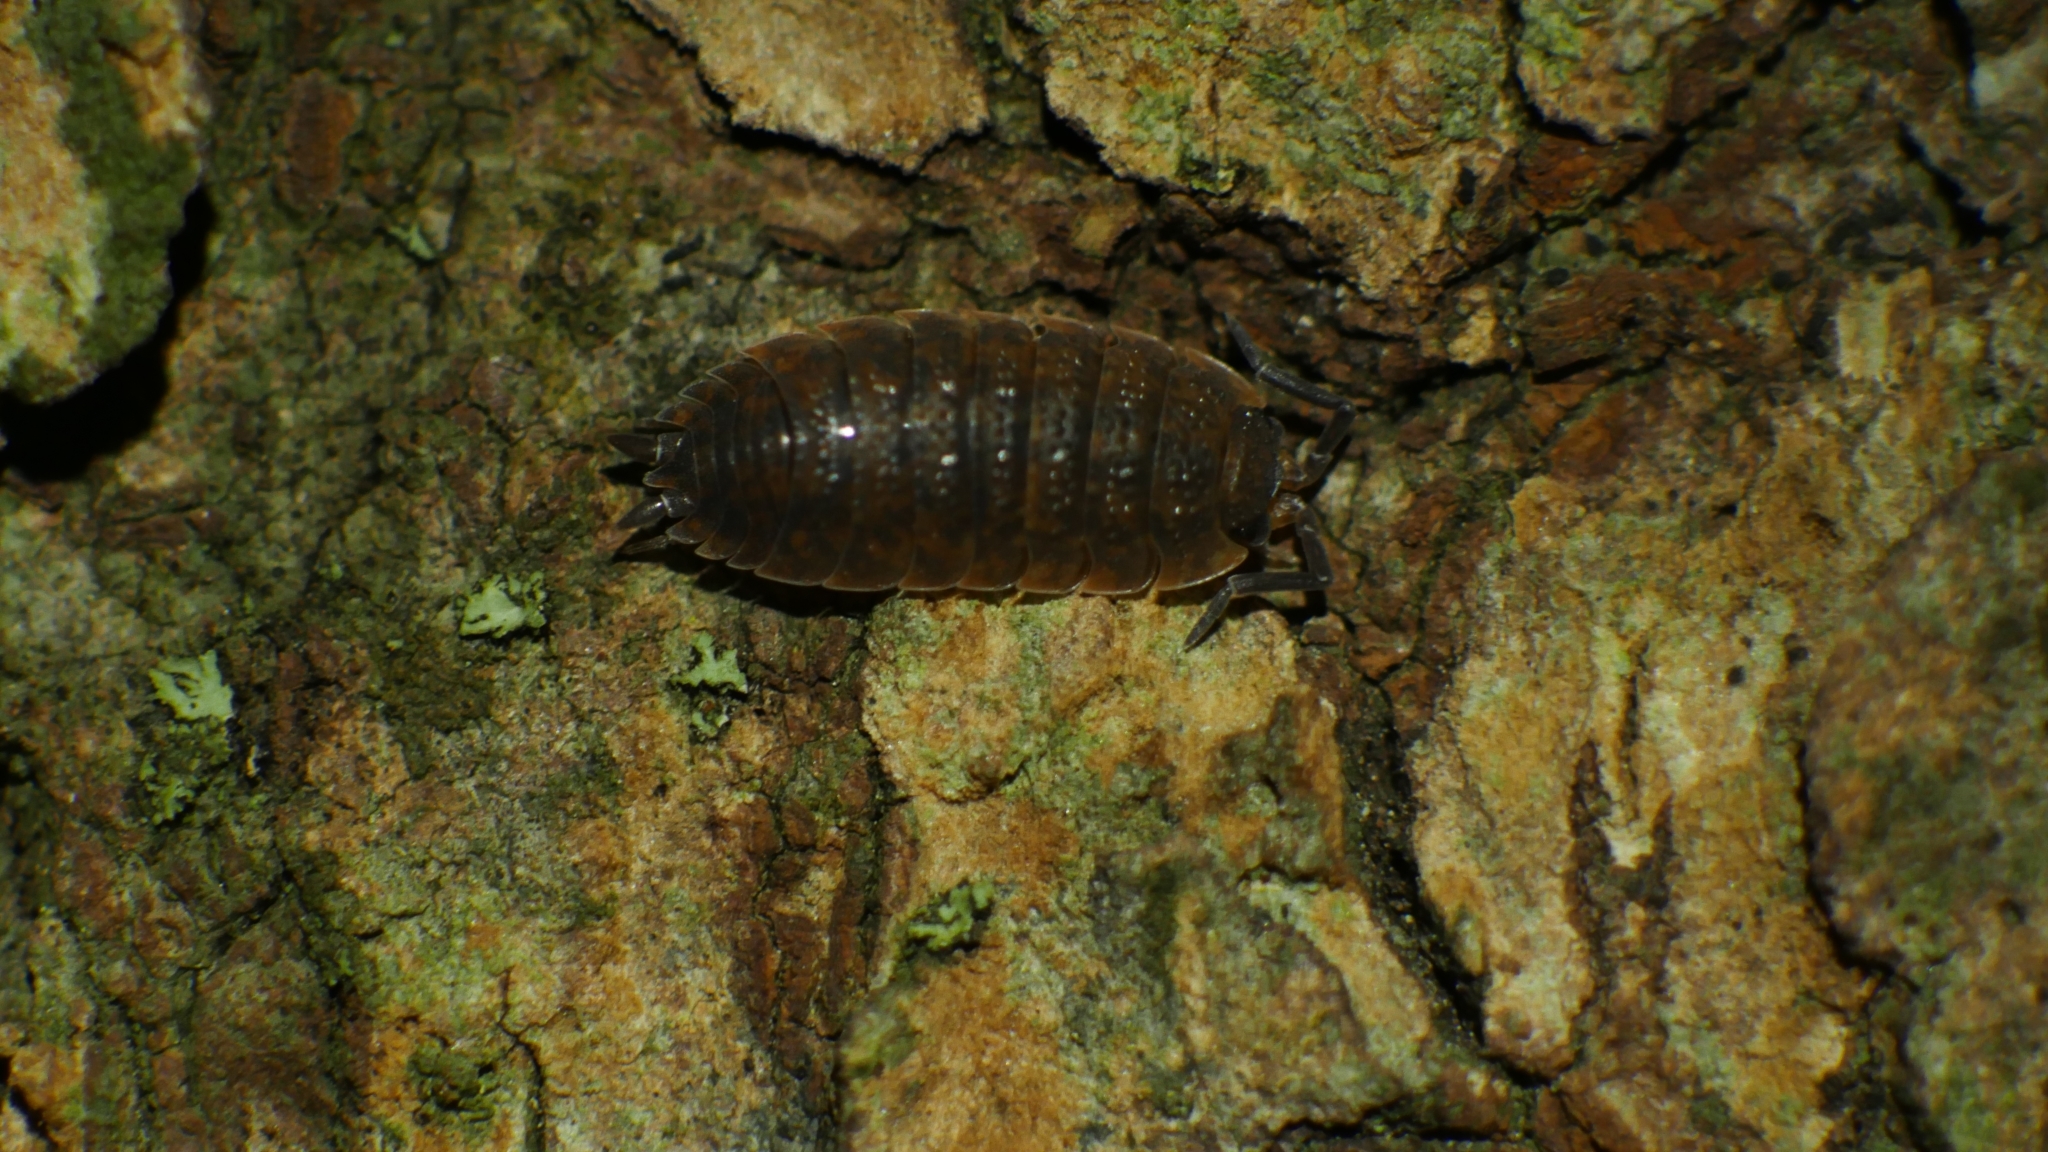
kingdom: Animalia
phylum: Arthropoda
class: Malacostraca
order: Isopoda
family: Porcellionidae
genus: Porcellio
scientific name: Porcellio scaber
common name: Common rough woodlouse
